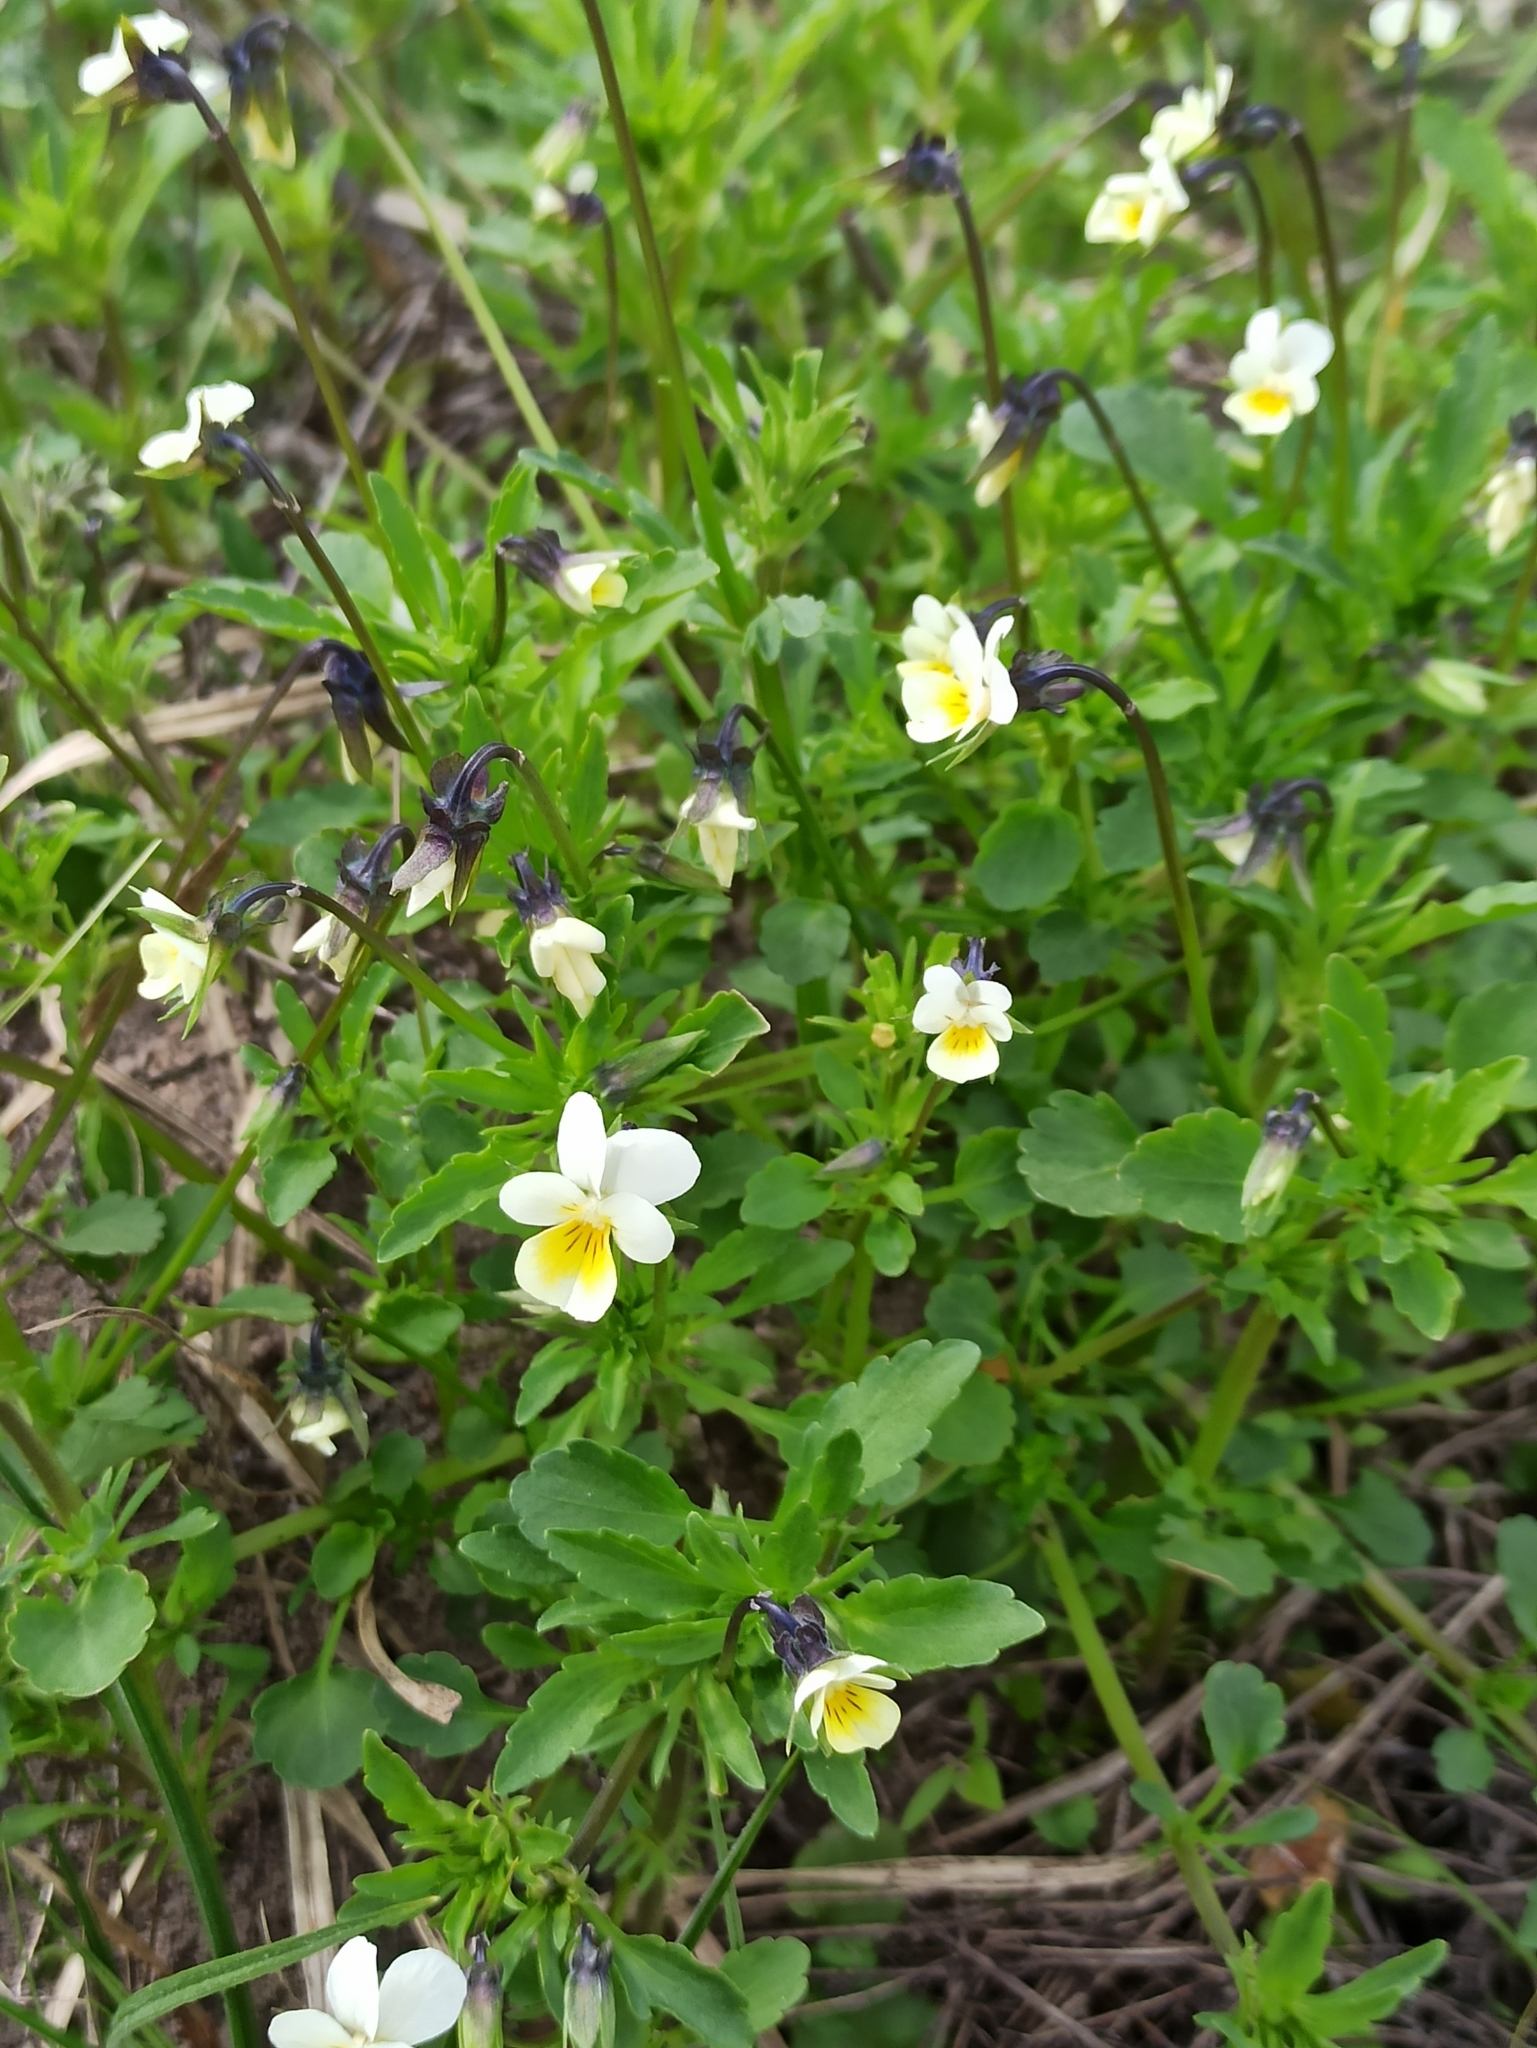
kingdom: Plantae
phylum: Tracheophyta
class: Magnoliopsida
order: Malpighiales
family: Violaceae
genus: Viola
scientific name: Viola arvensis
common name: Field pansy
